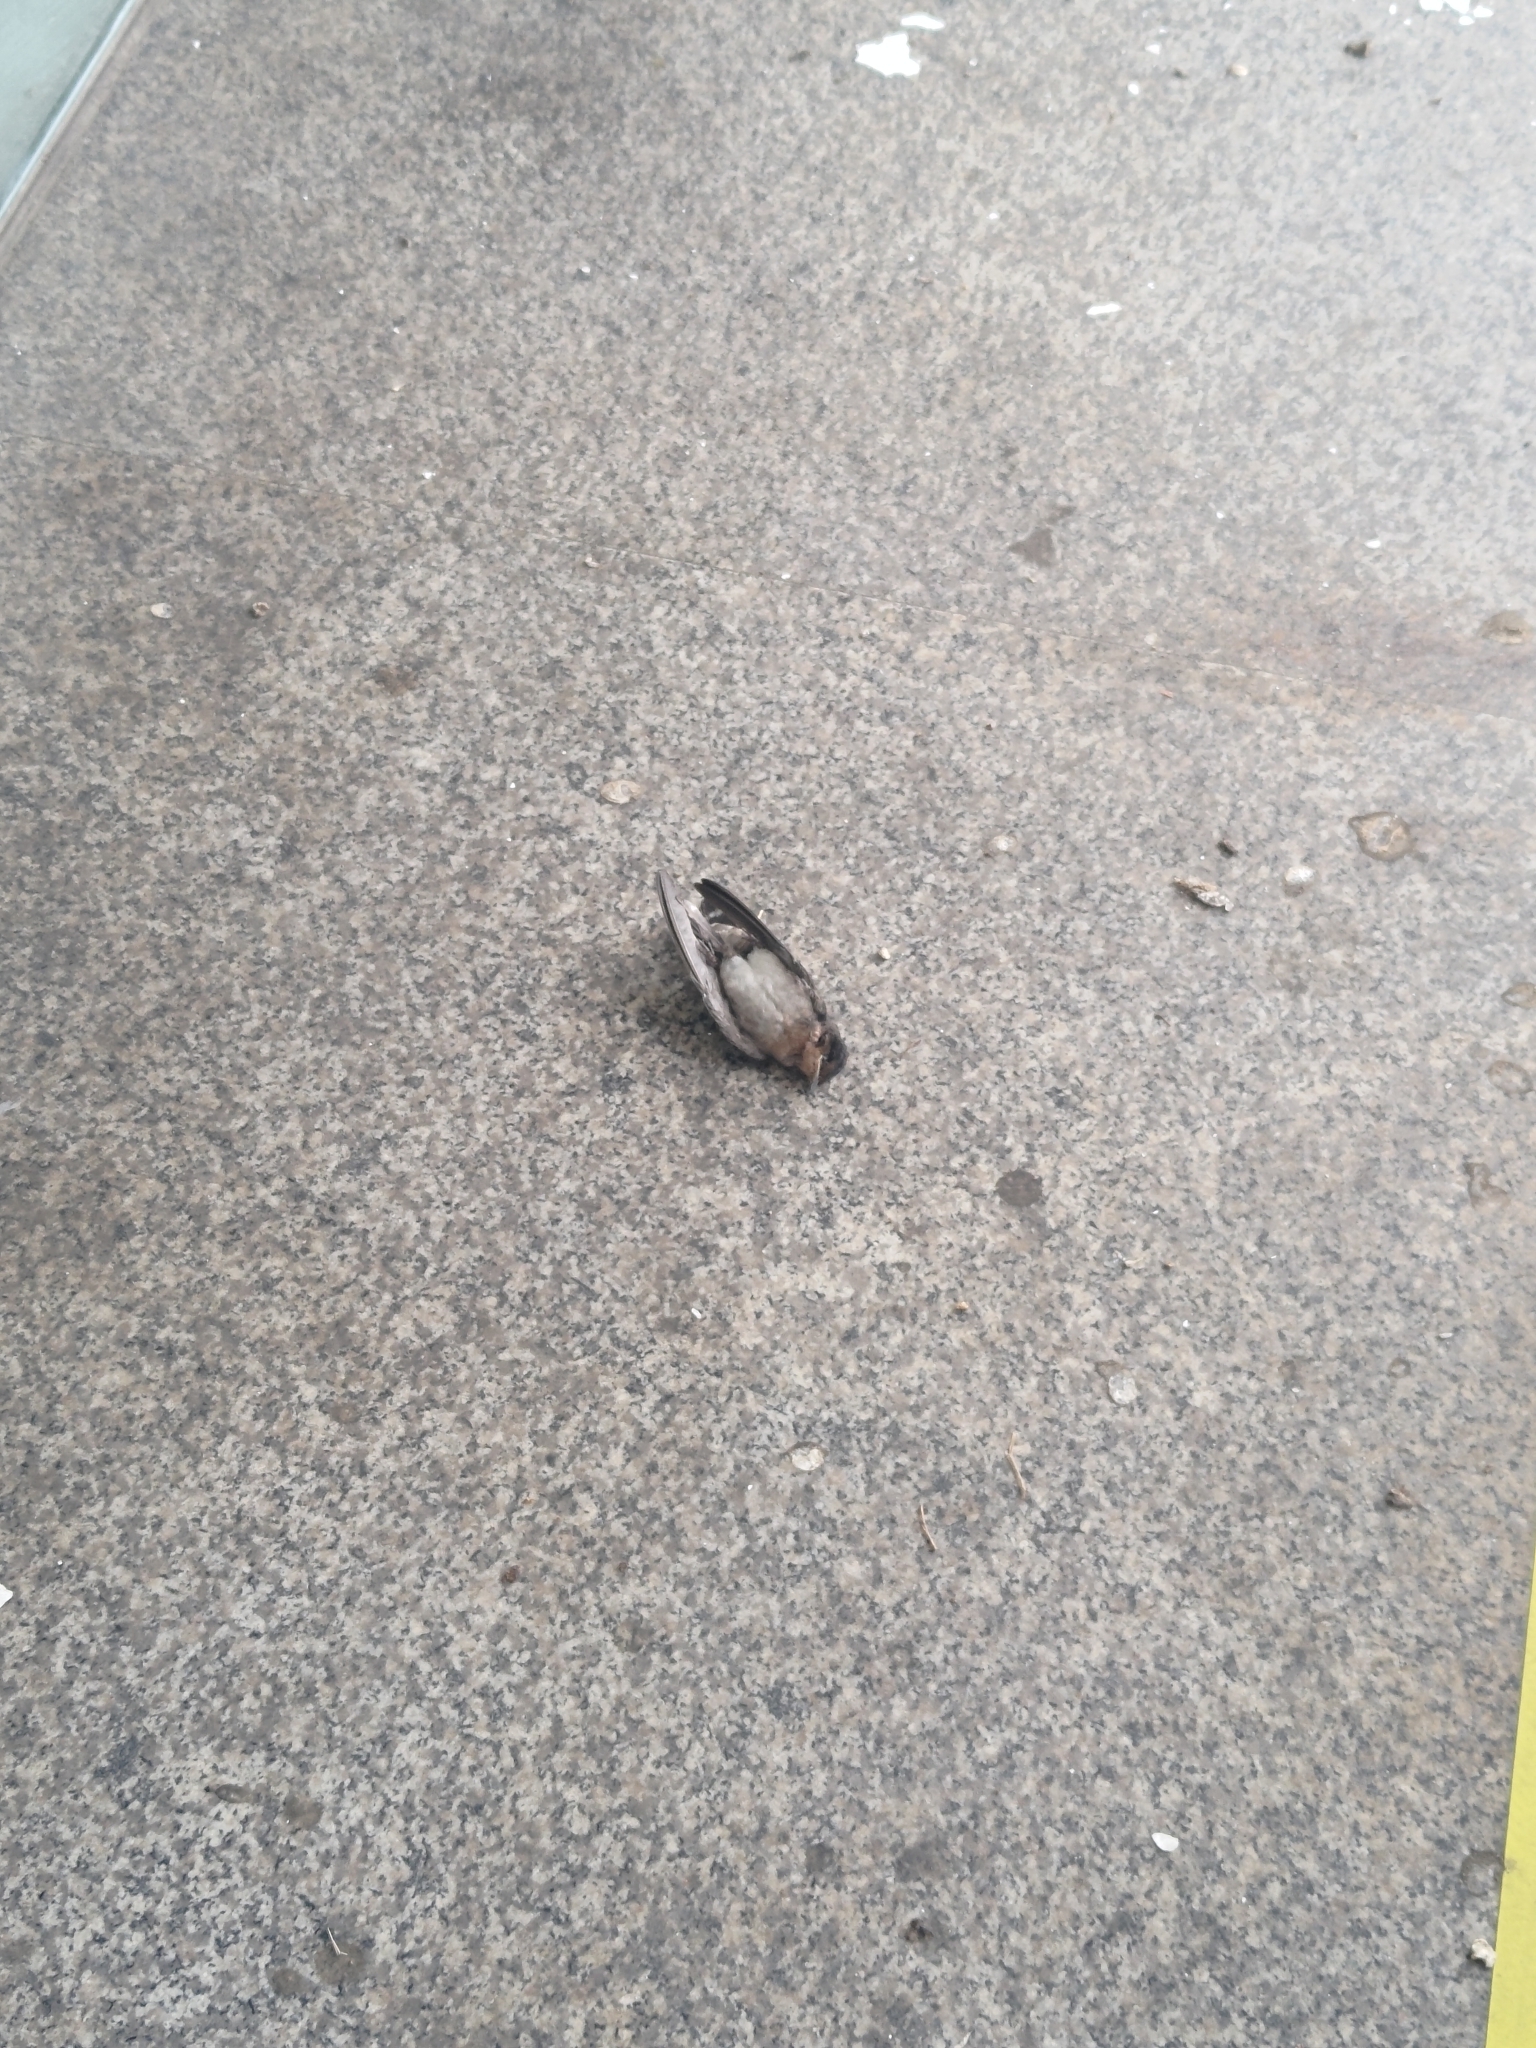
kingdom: Animalia
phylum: Chordata
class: Aves
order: Passeriformes
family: Hirundinidae
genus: Hirundo
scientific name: Hirundo tahitica
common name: Pacific swallow
